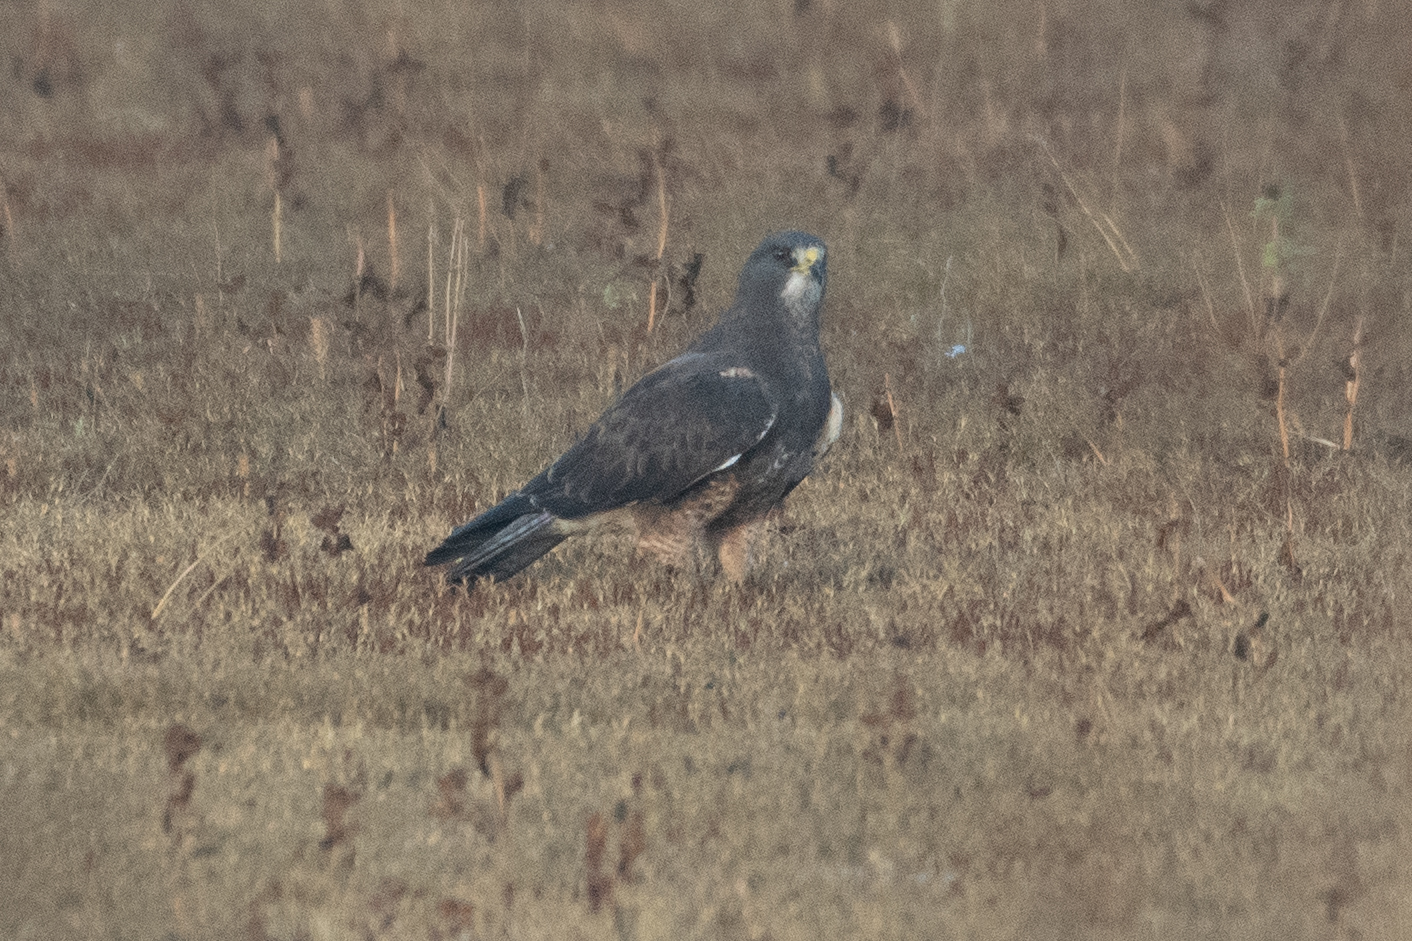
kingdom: Animalia
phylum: Chordata
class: Aves
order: Accipitriformes
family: Accipitridae
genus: Buteo
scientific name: Buteo swainsoni
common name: Swainson's hawk
